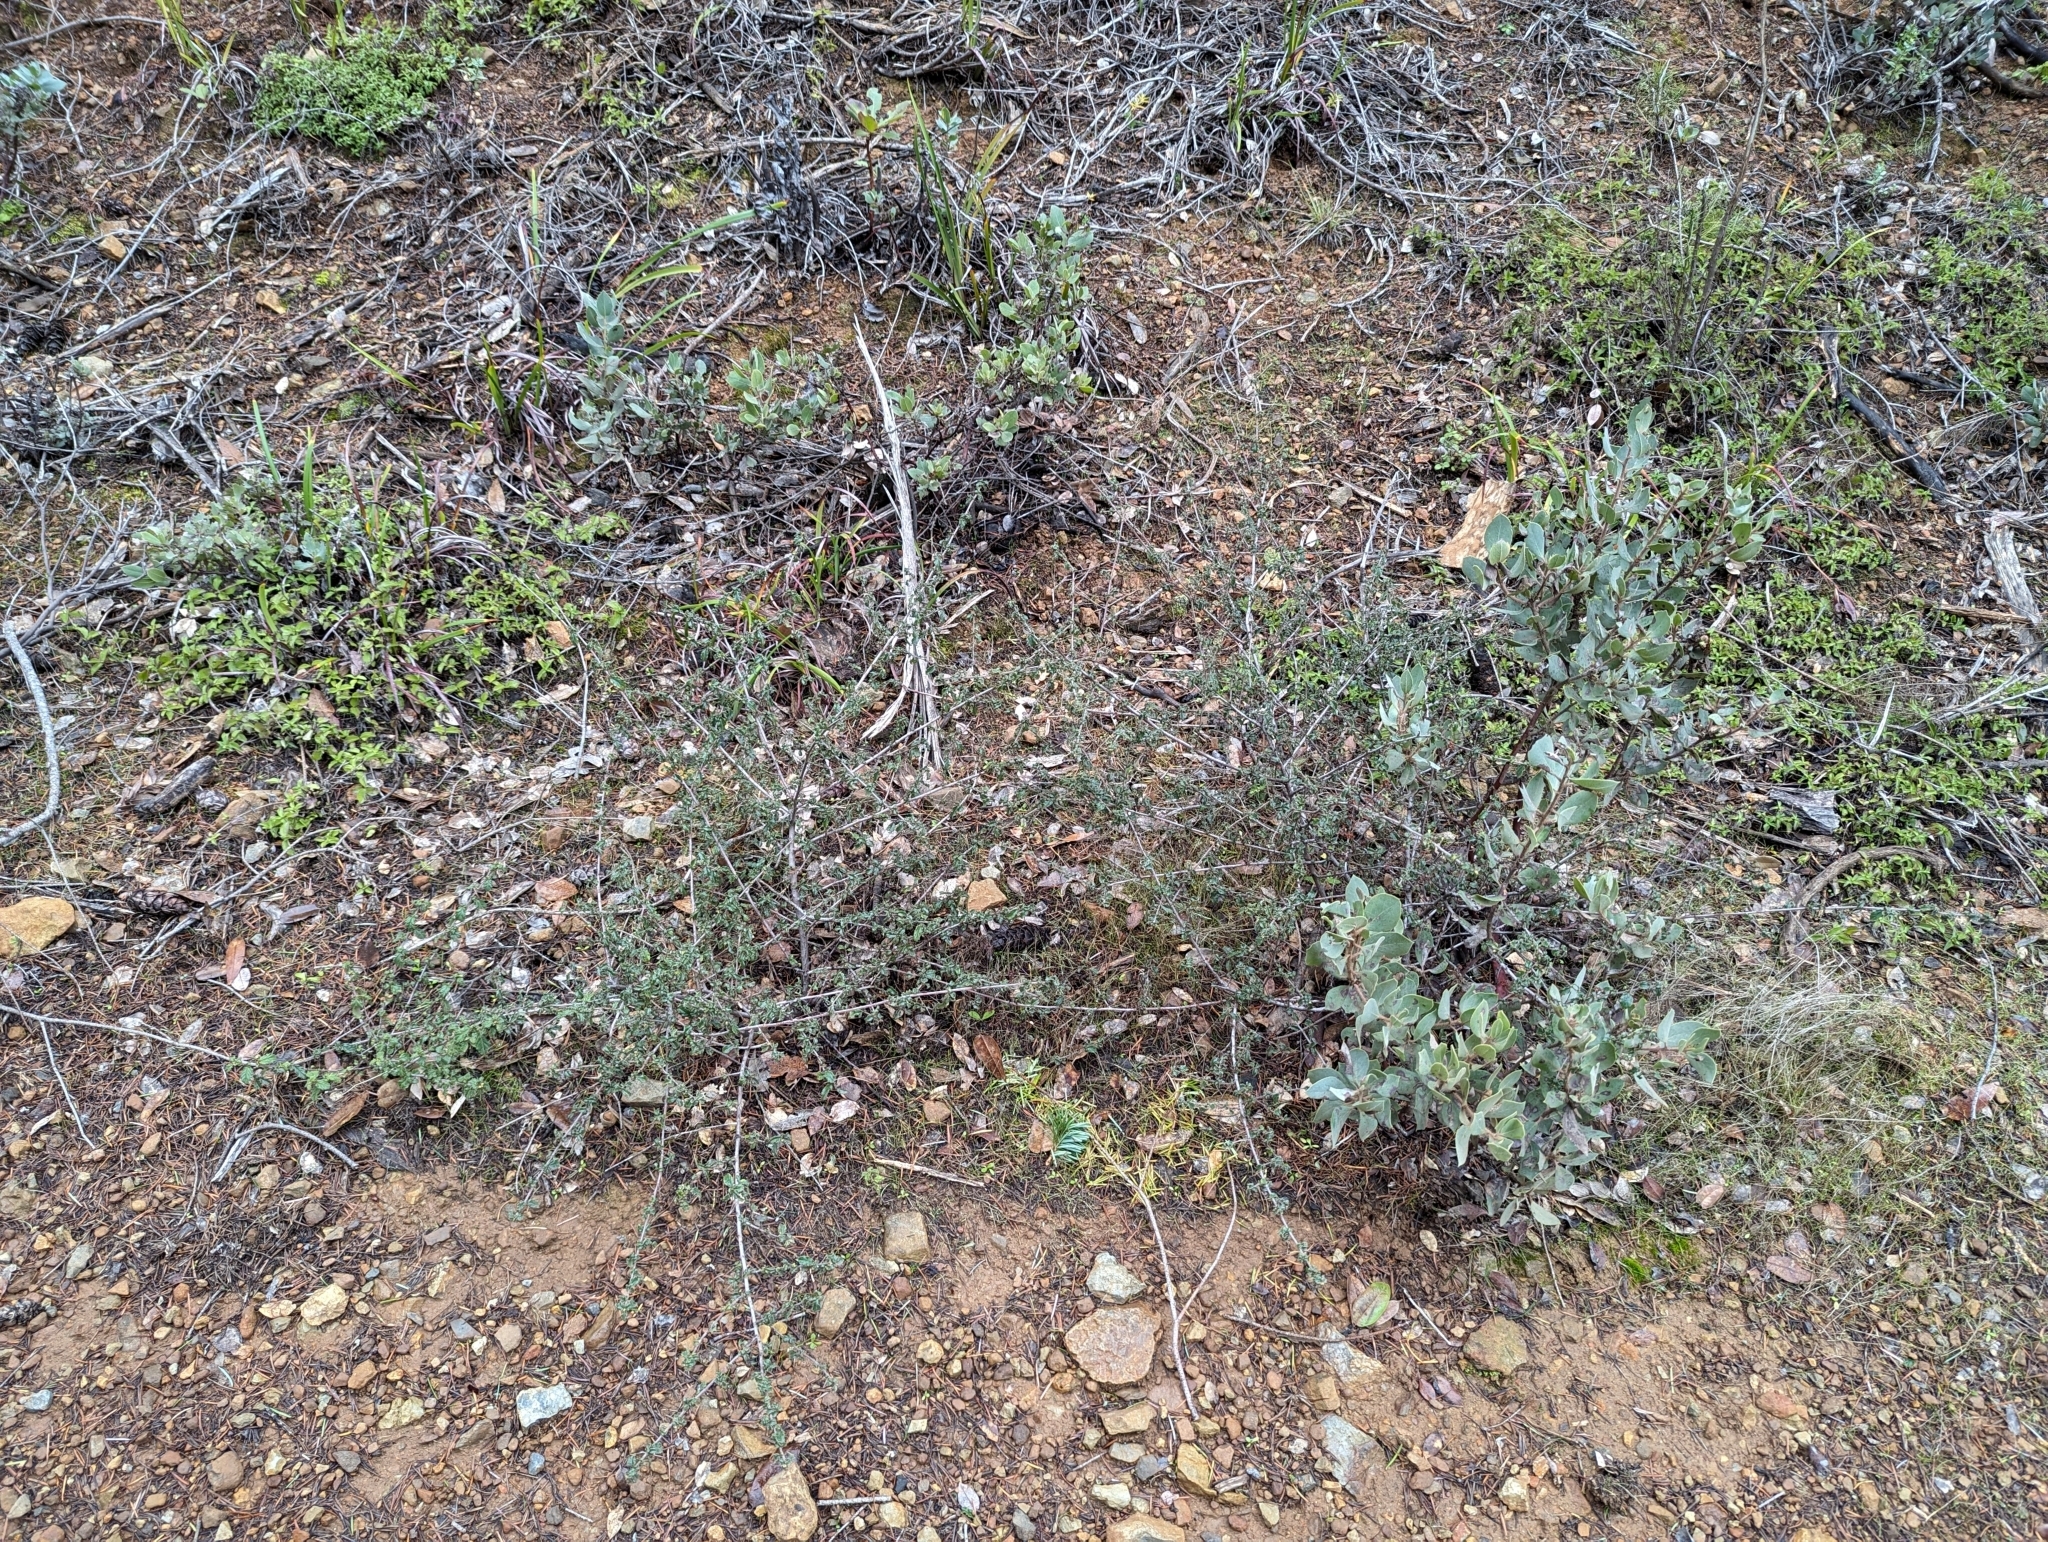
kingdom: Plantae
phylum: Tracheophyta
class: Magnoliopsida
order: Rosales
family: Rhamnaceae
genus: Ceanothus
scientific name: Ceanothus foliosus
